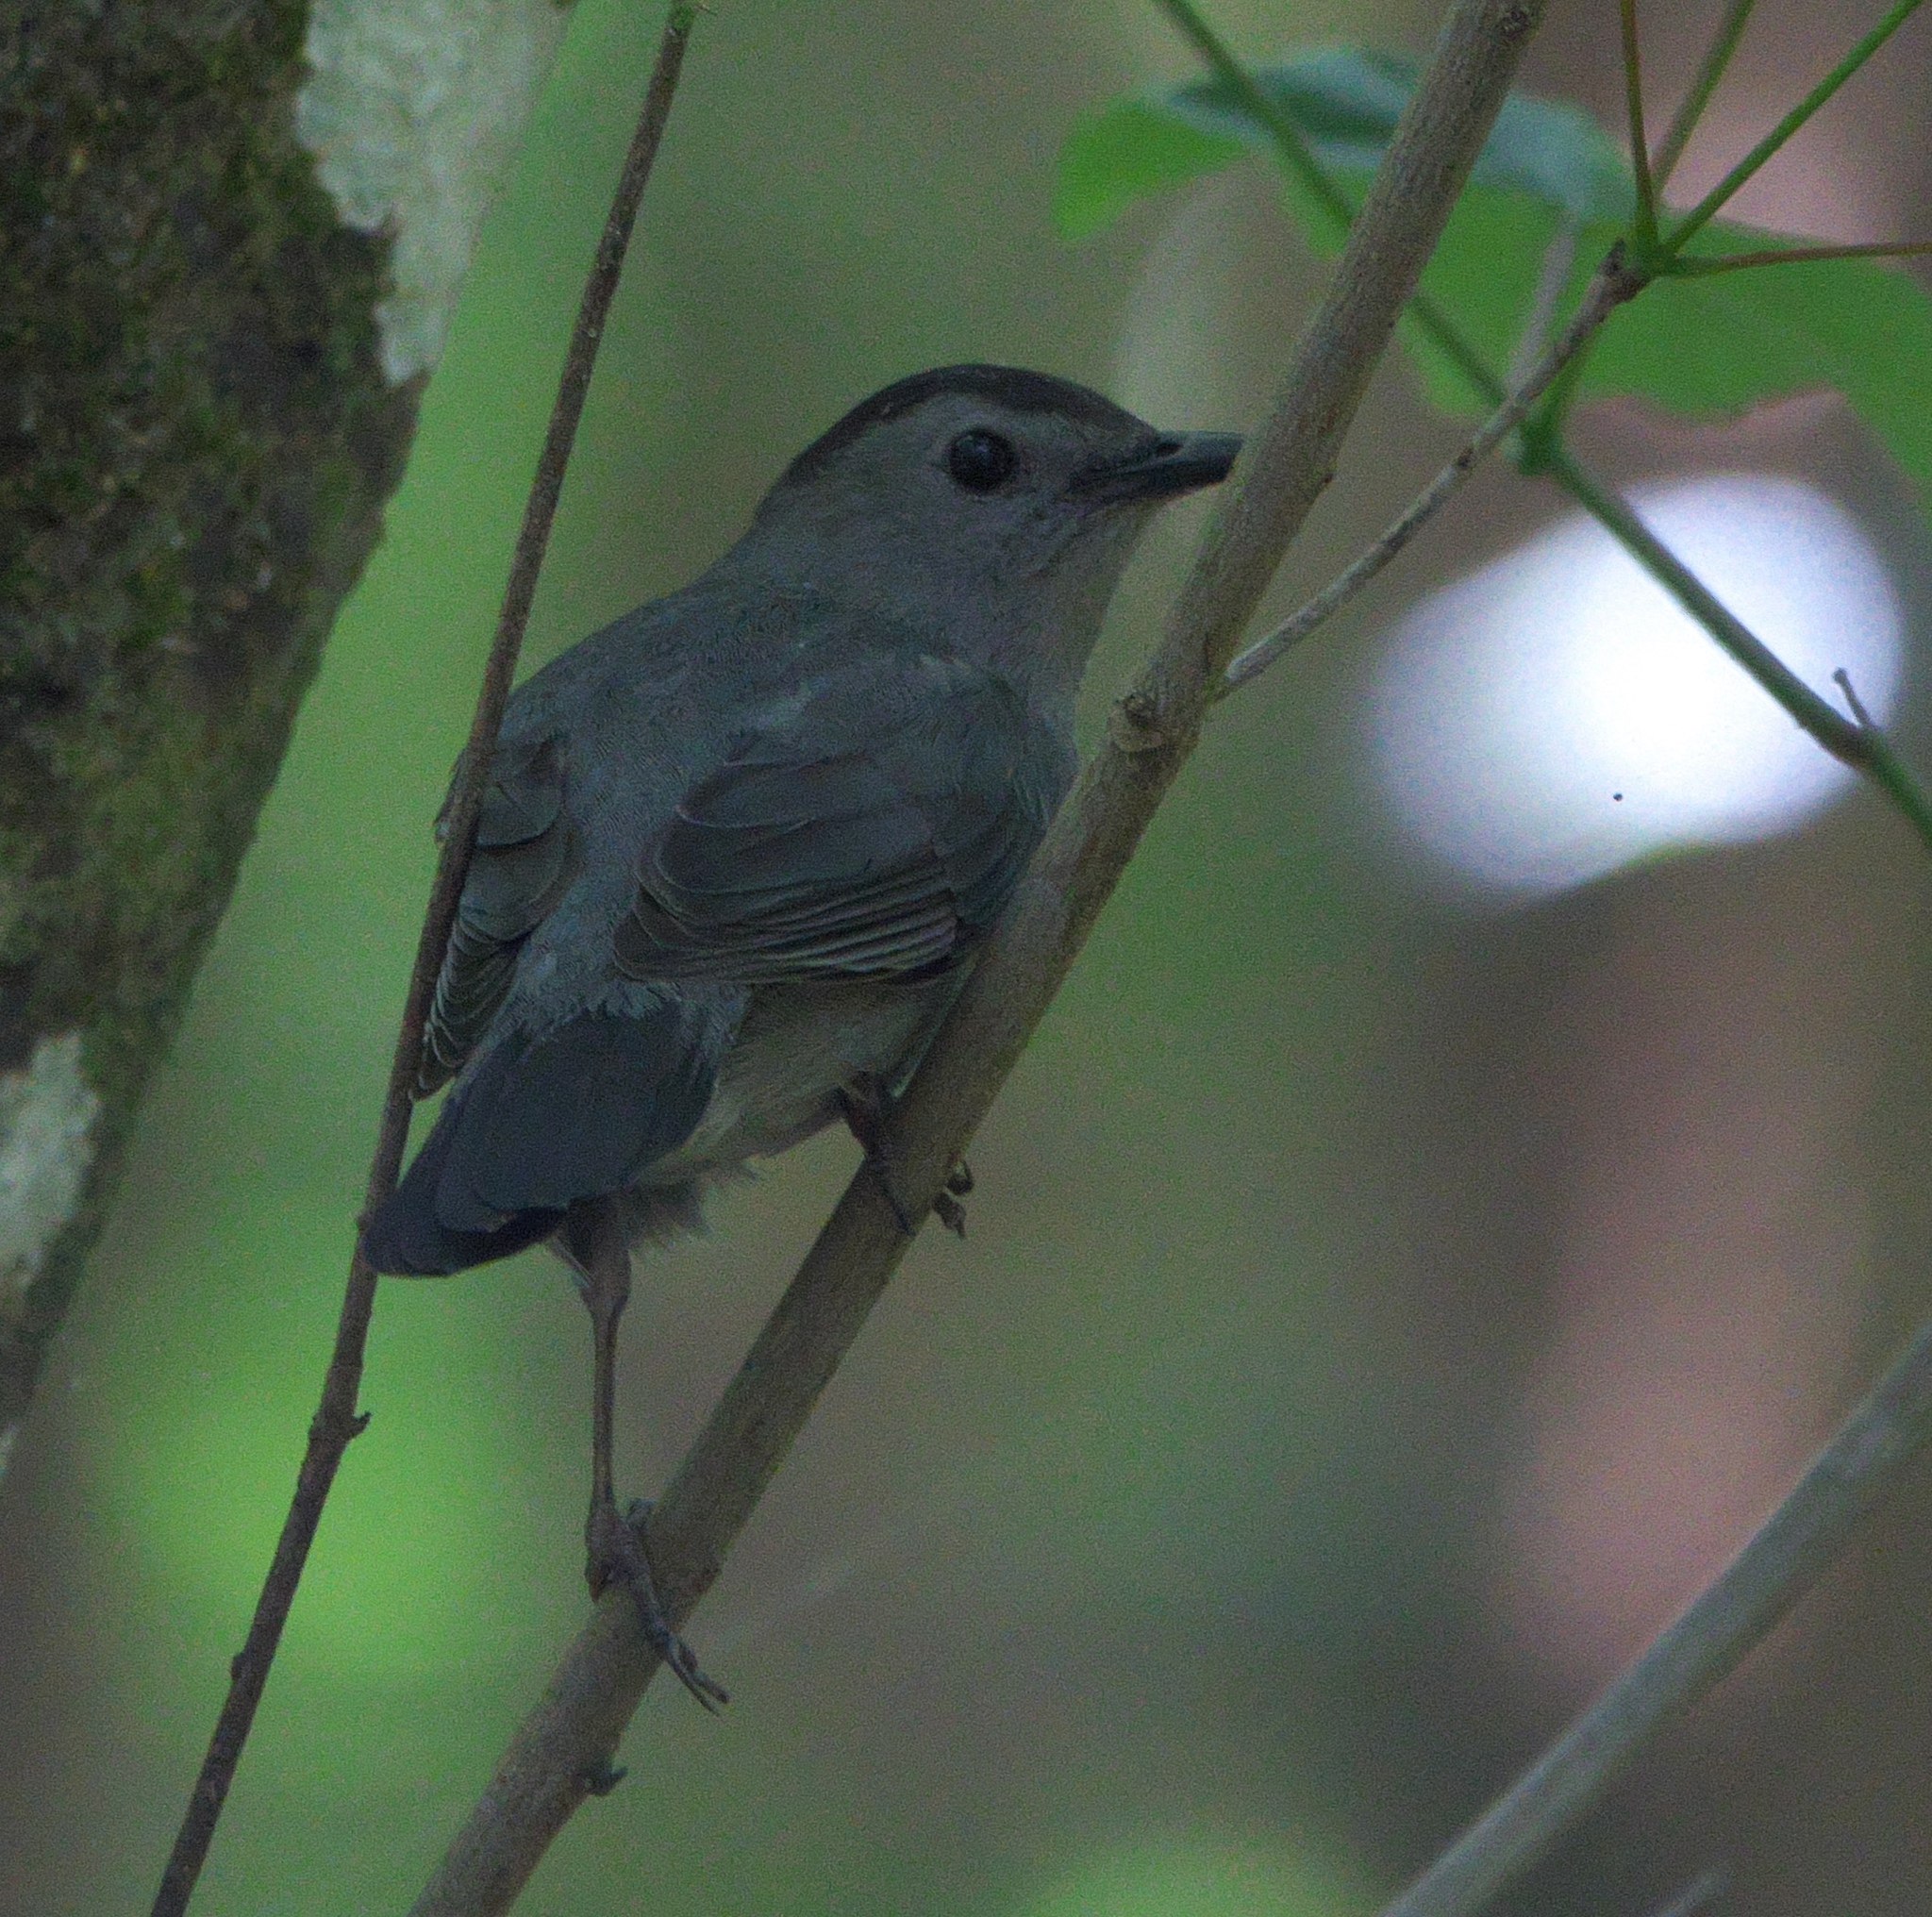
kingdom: Animalia
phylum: Chordata
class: Aves
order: Passeriformes
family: Mimidae
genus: Dumetella
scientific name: Dumetella carolinensis
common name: Gray catbird
